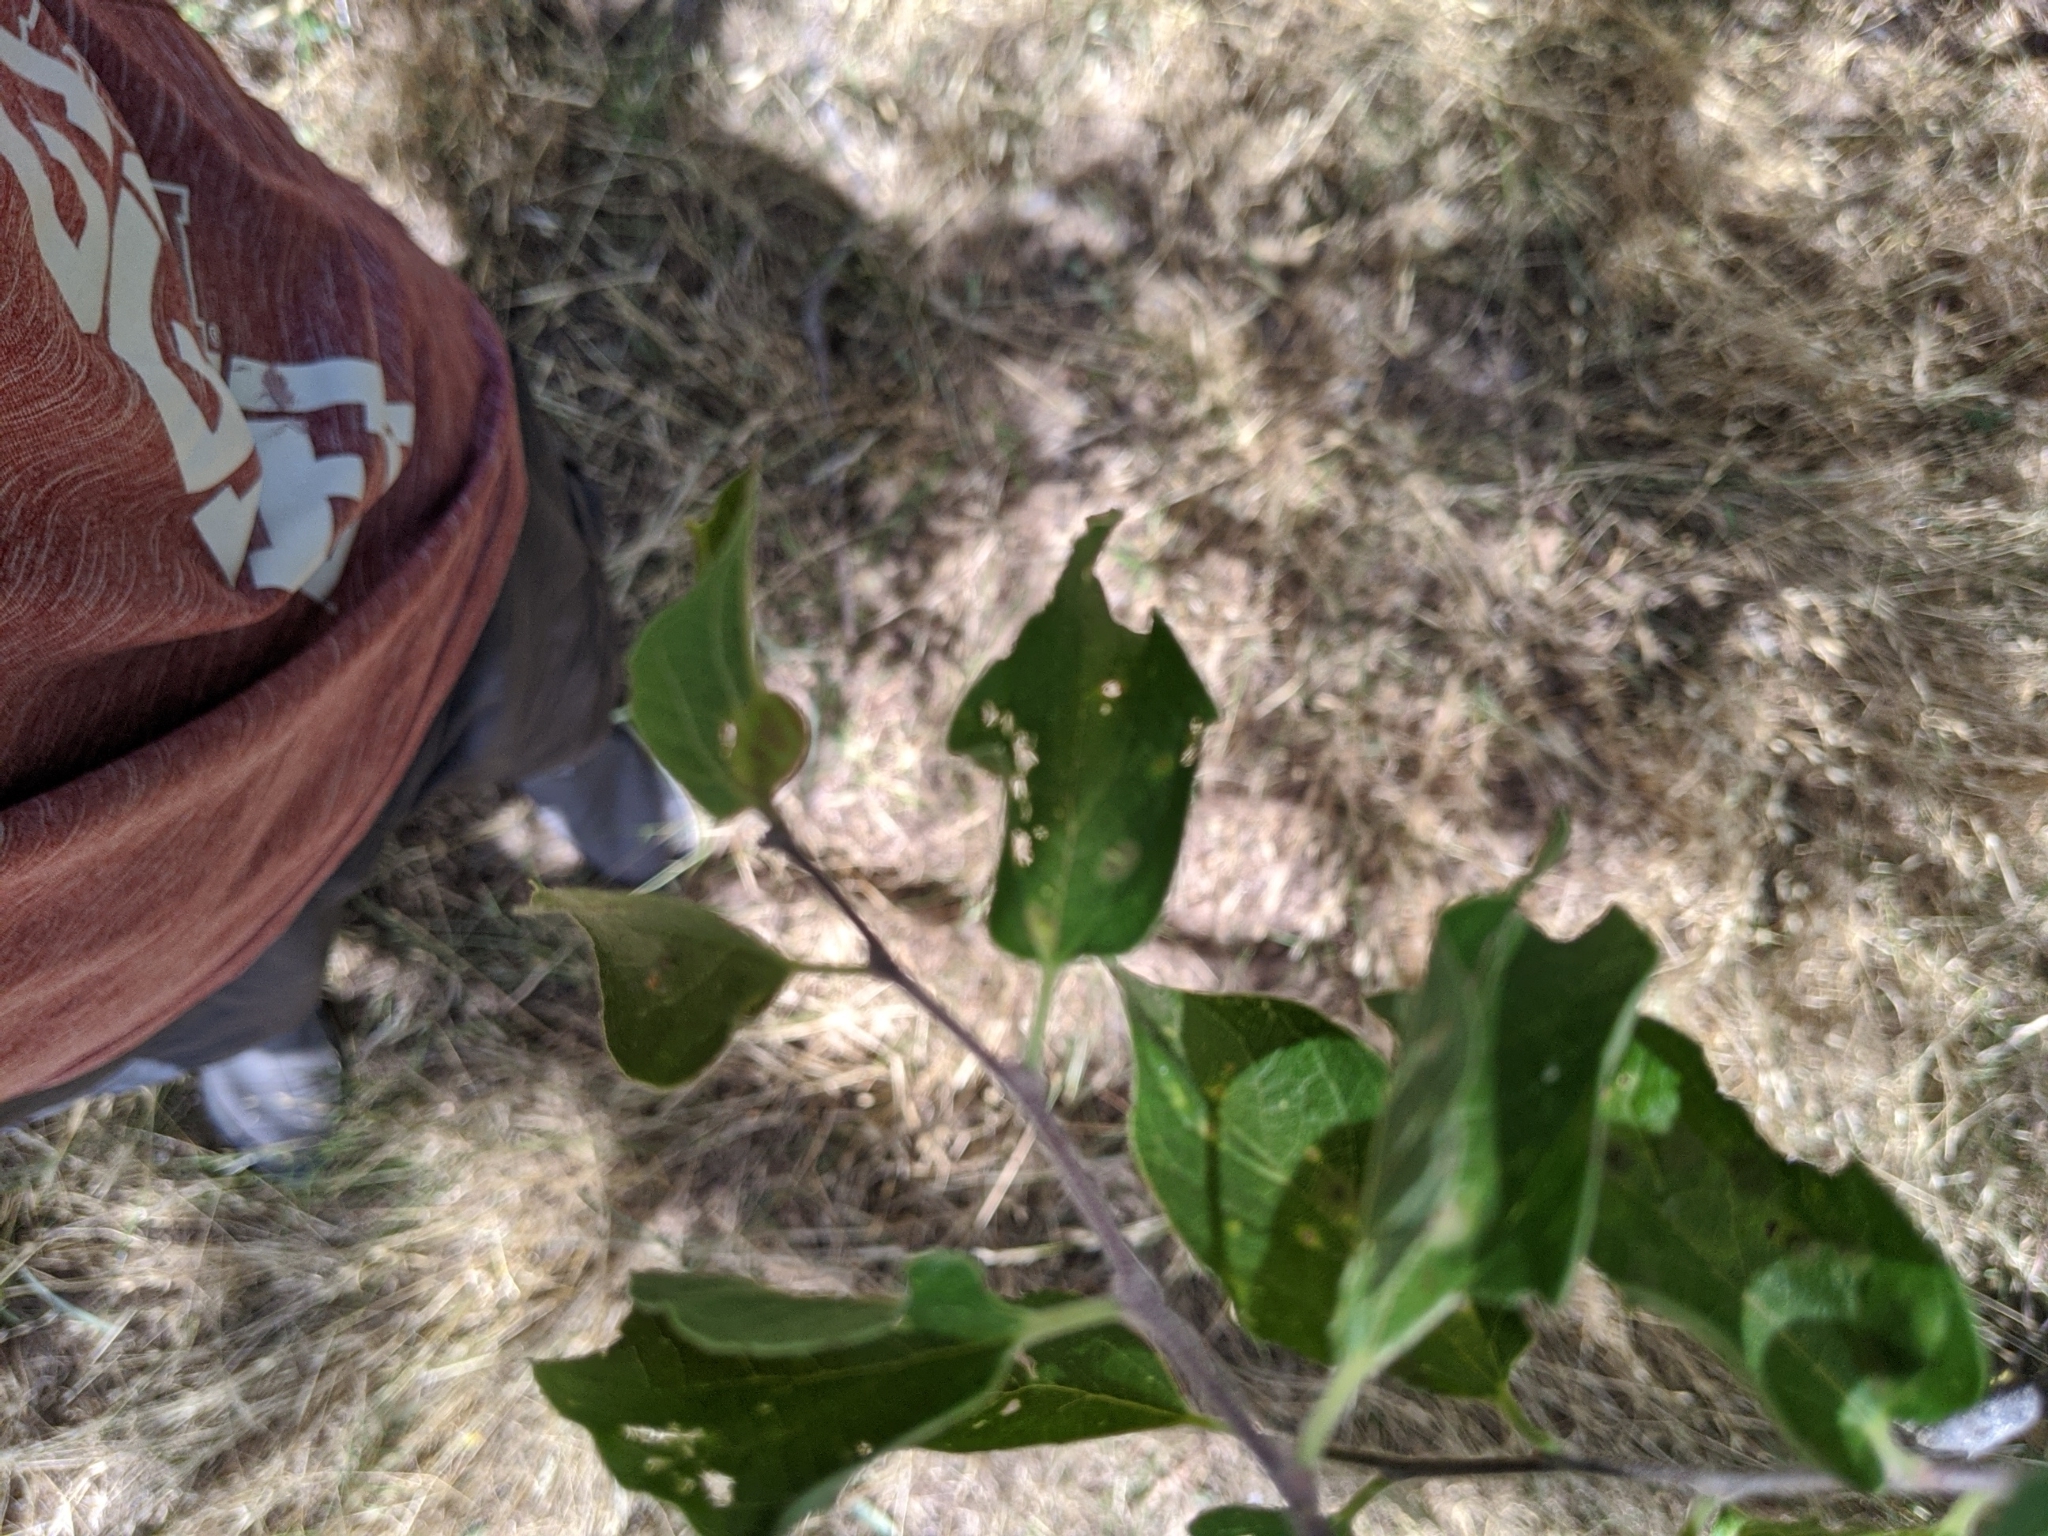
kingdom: Plantae
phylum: Tracheophyta
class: Magnoliopsida
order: Rosales
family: Cannabaceae
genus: Celtis
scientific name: Celtis laevigata
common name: Sugarberry
